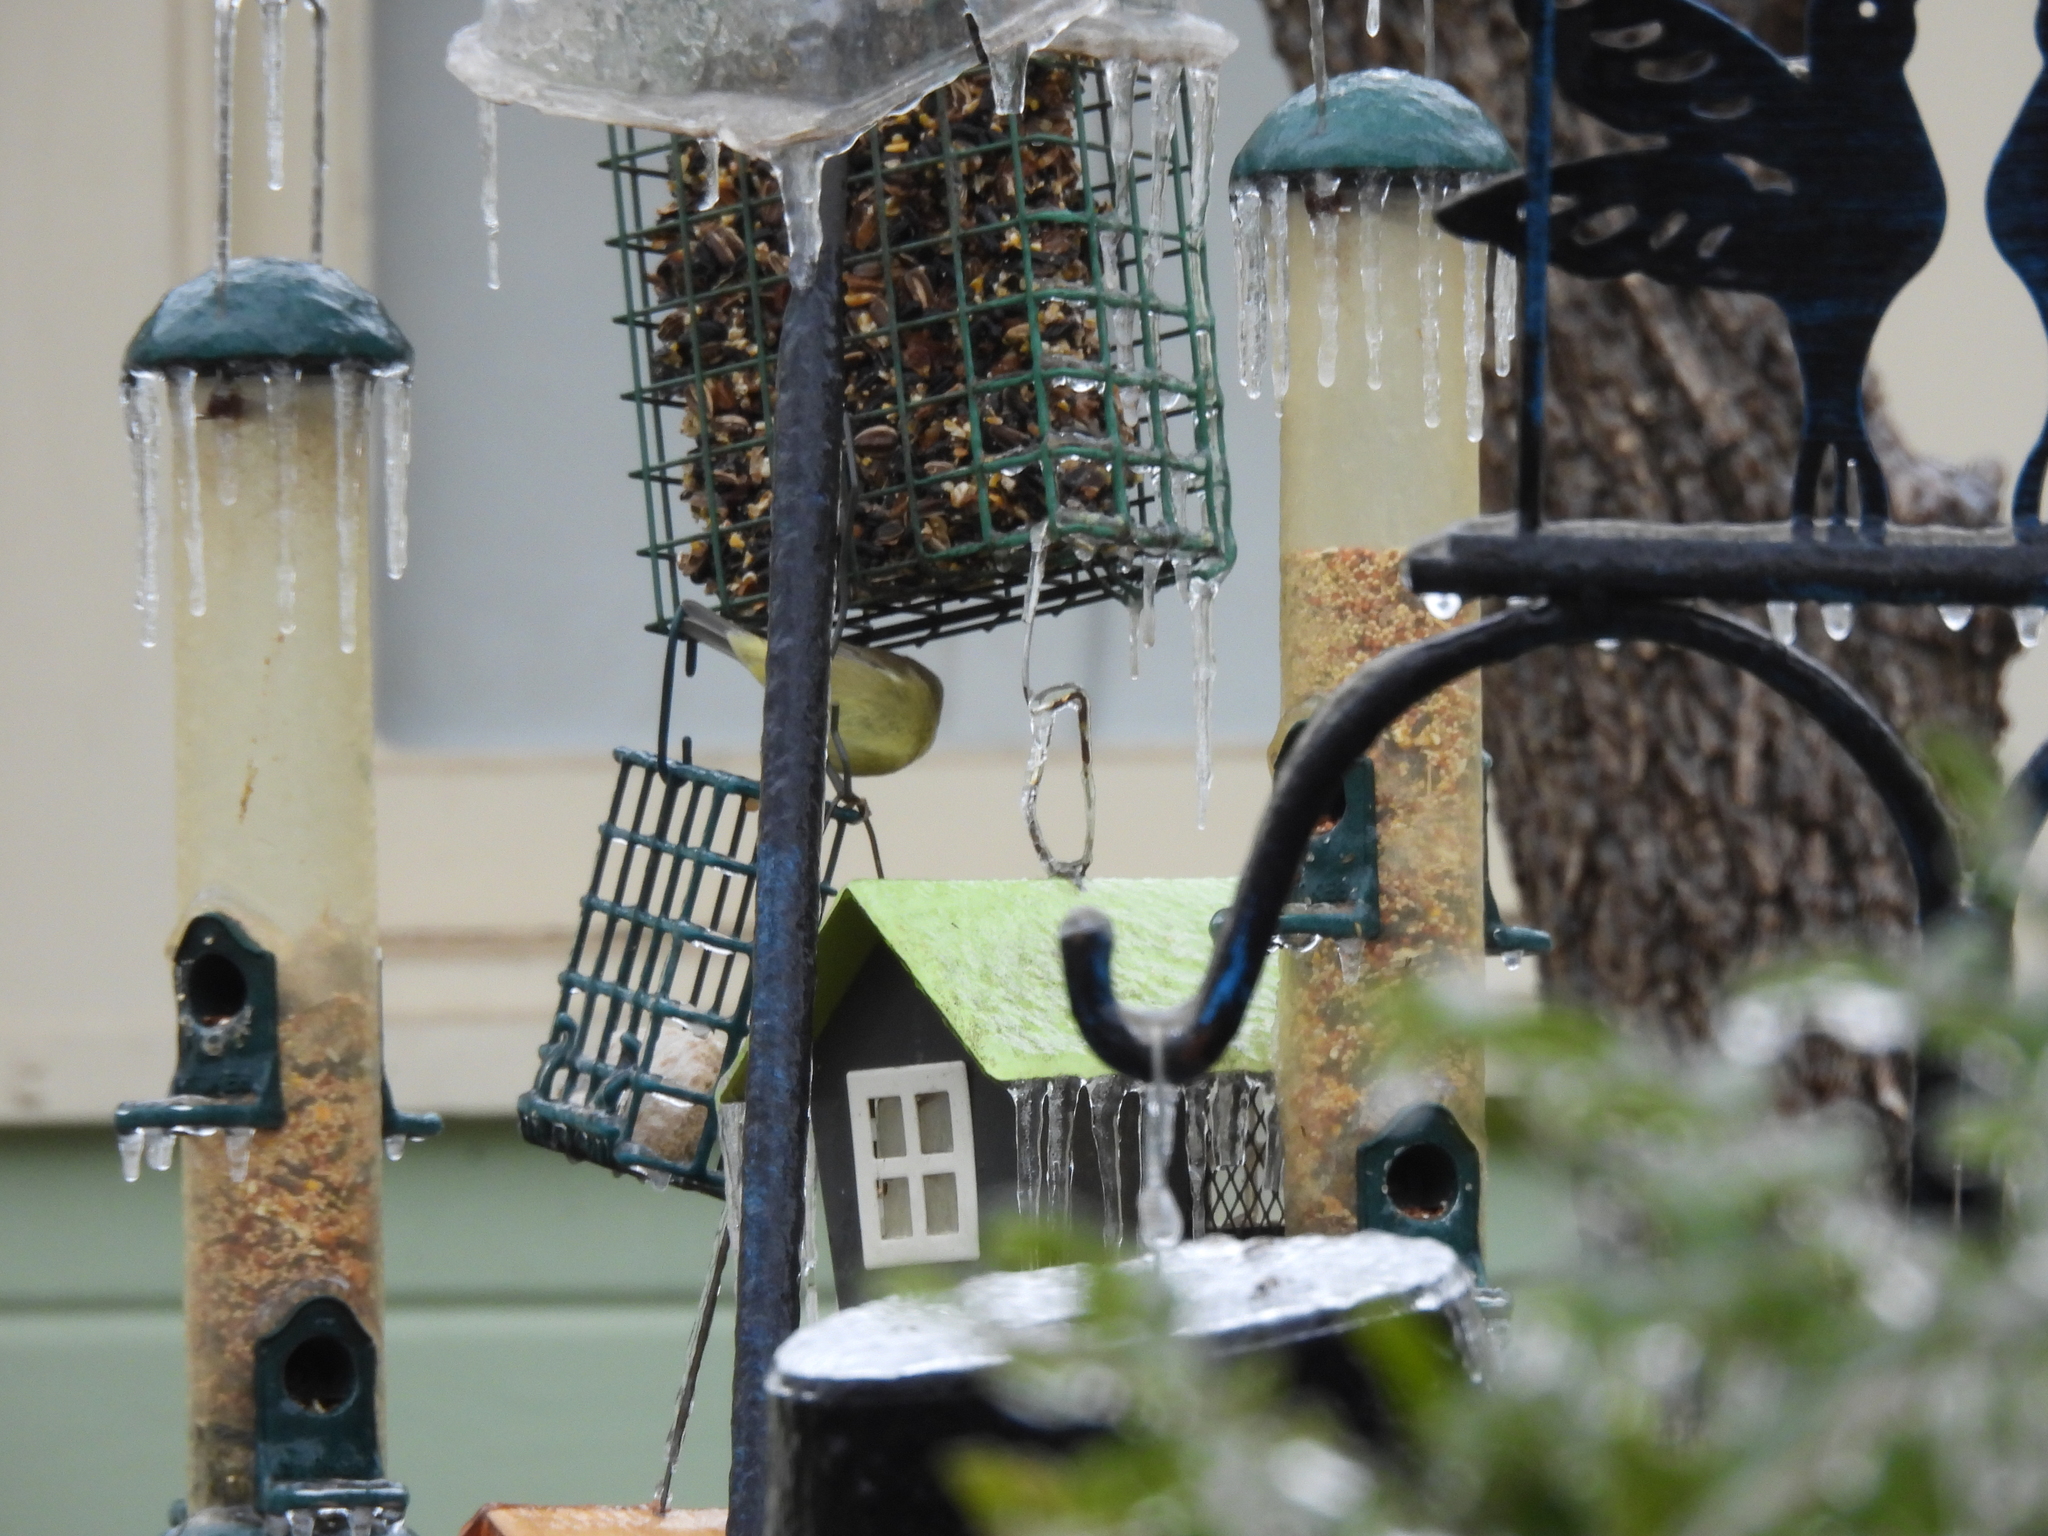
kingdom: Animalia
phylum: Chordata
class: Aves
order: Passeriformes
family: Parulidae
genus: Leiothlypis
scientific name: Leiothlypis celata
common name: Orange-crowned warbler
